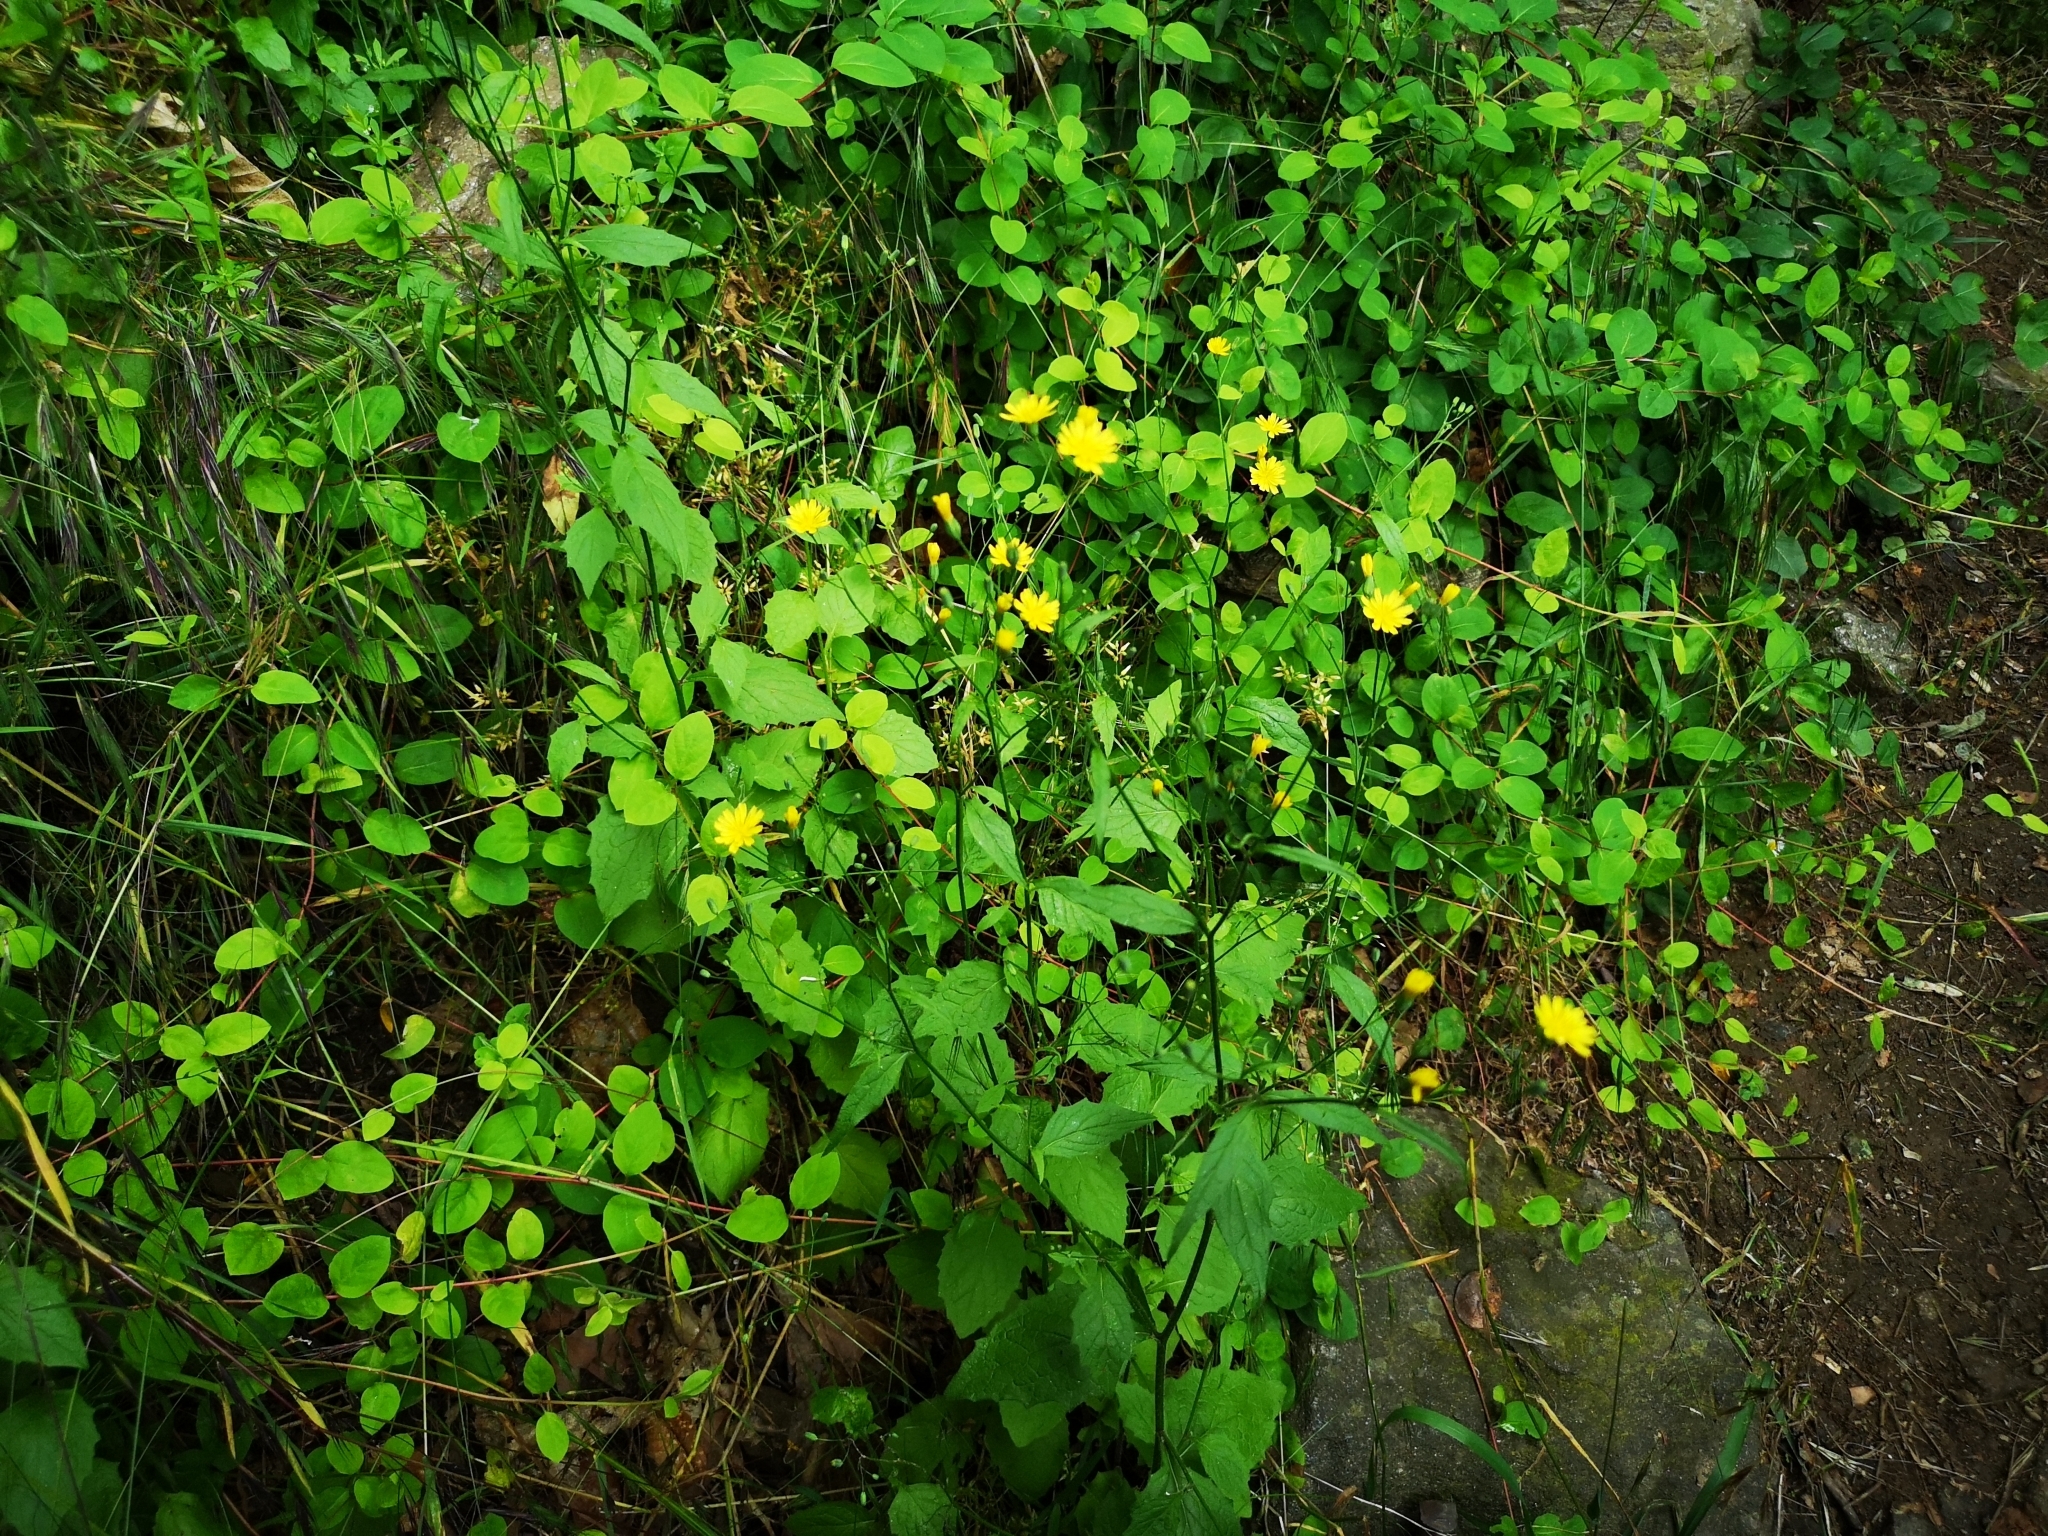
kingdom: Plantae
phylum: Tracheophyta
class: Magnoliopsida
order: Asterales
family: Asteraceae
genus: Lapsana
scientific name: Lapsana communis
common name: Nipplewort
